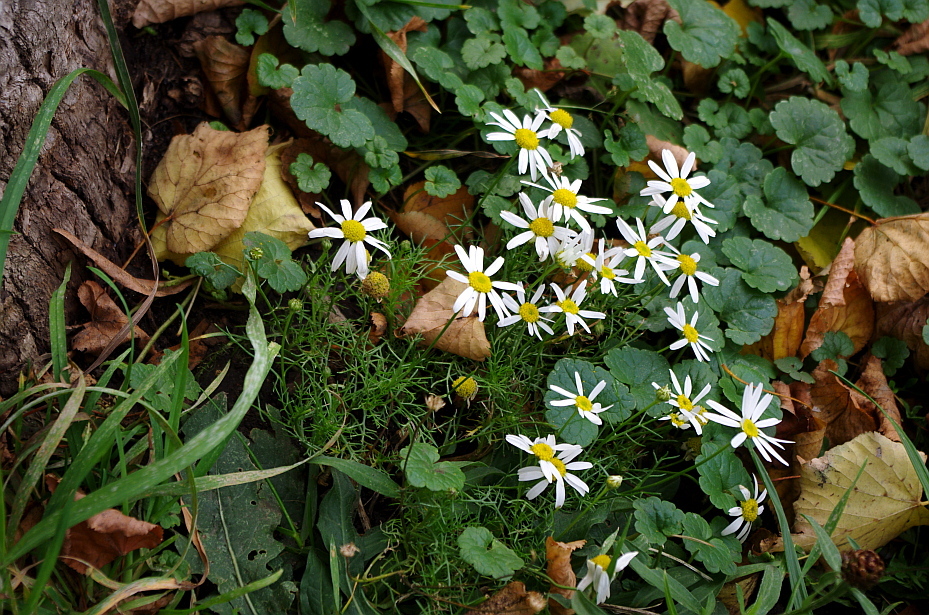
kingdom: Plantae
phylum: Tracheophyta
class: Magnoliopsida
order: Asterales
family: Asteraceae
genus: Tripleurospermum
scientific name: Tripleurospermum inodorum
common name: Scentless mayweed
